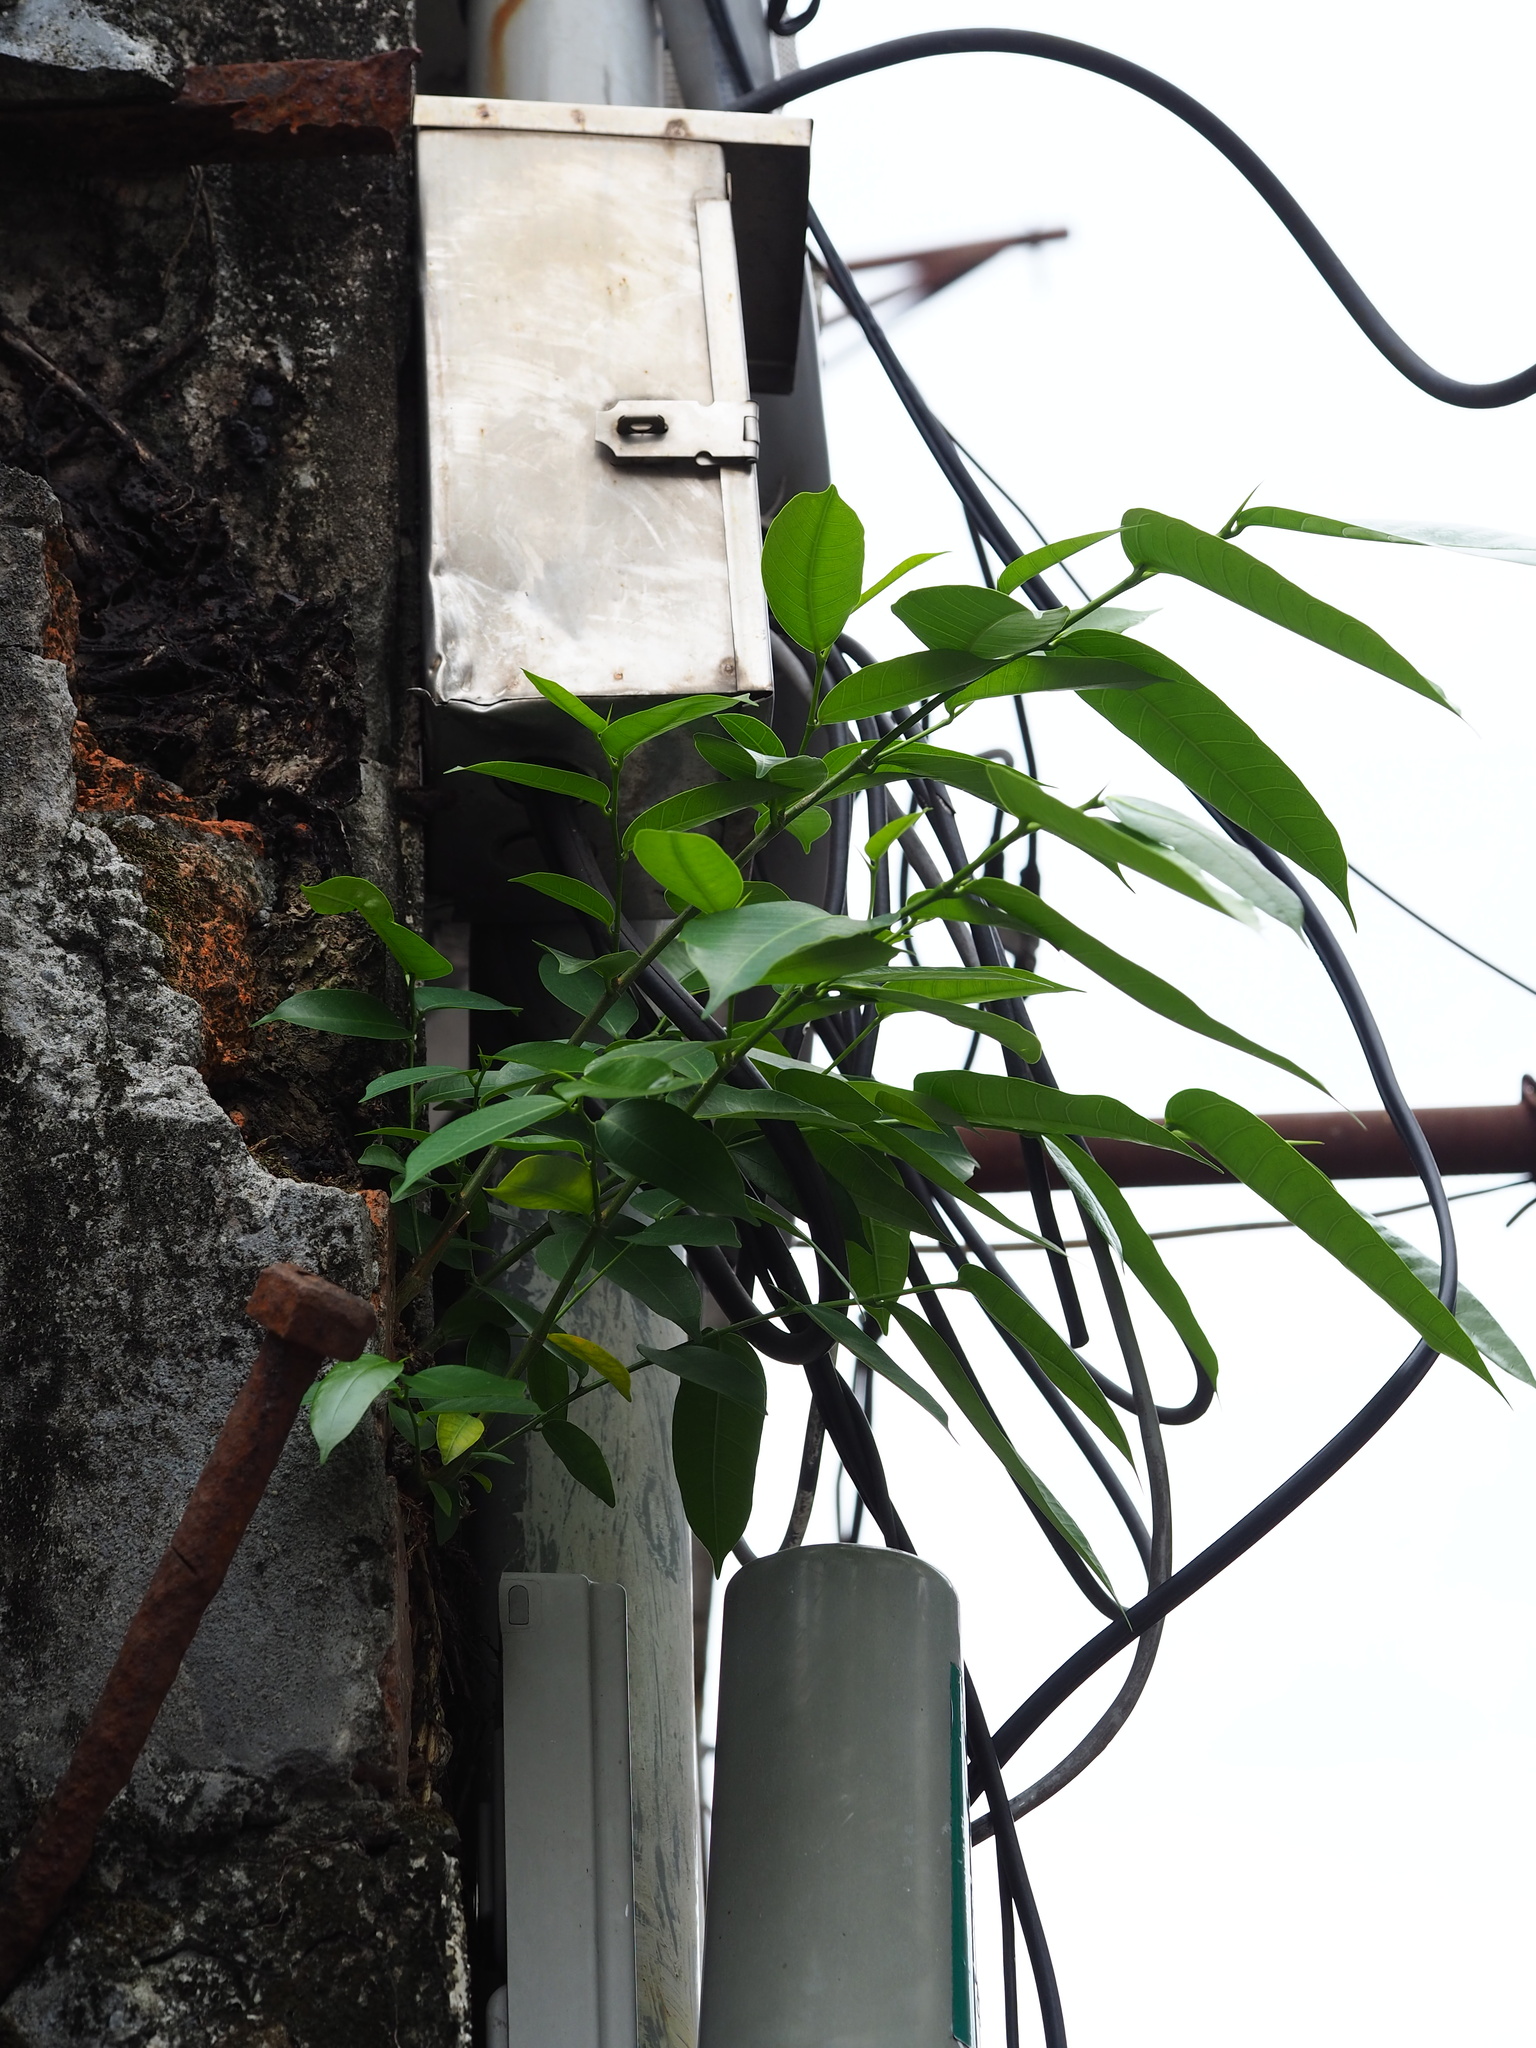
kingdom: Plantae
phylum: Tracheophyta
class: Magnoliopsida
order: Rosales
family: Moraceae
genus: Ficus
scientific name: Ficus virgata
